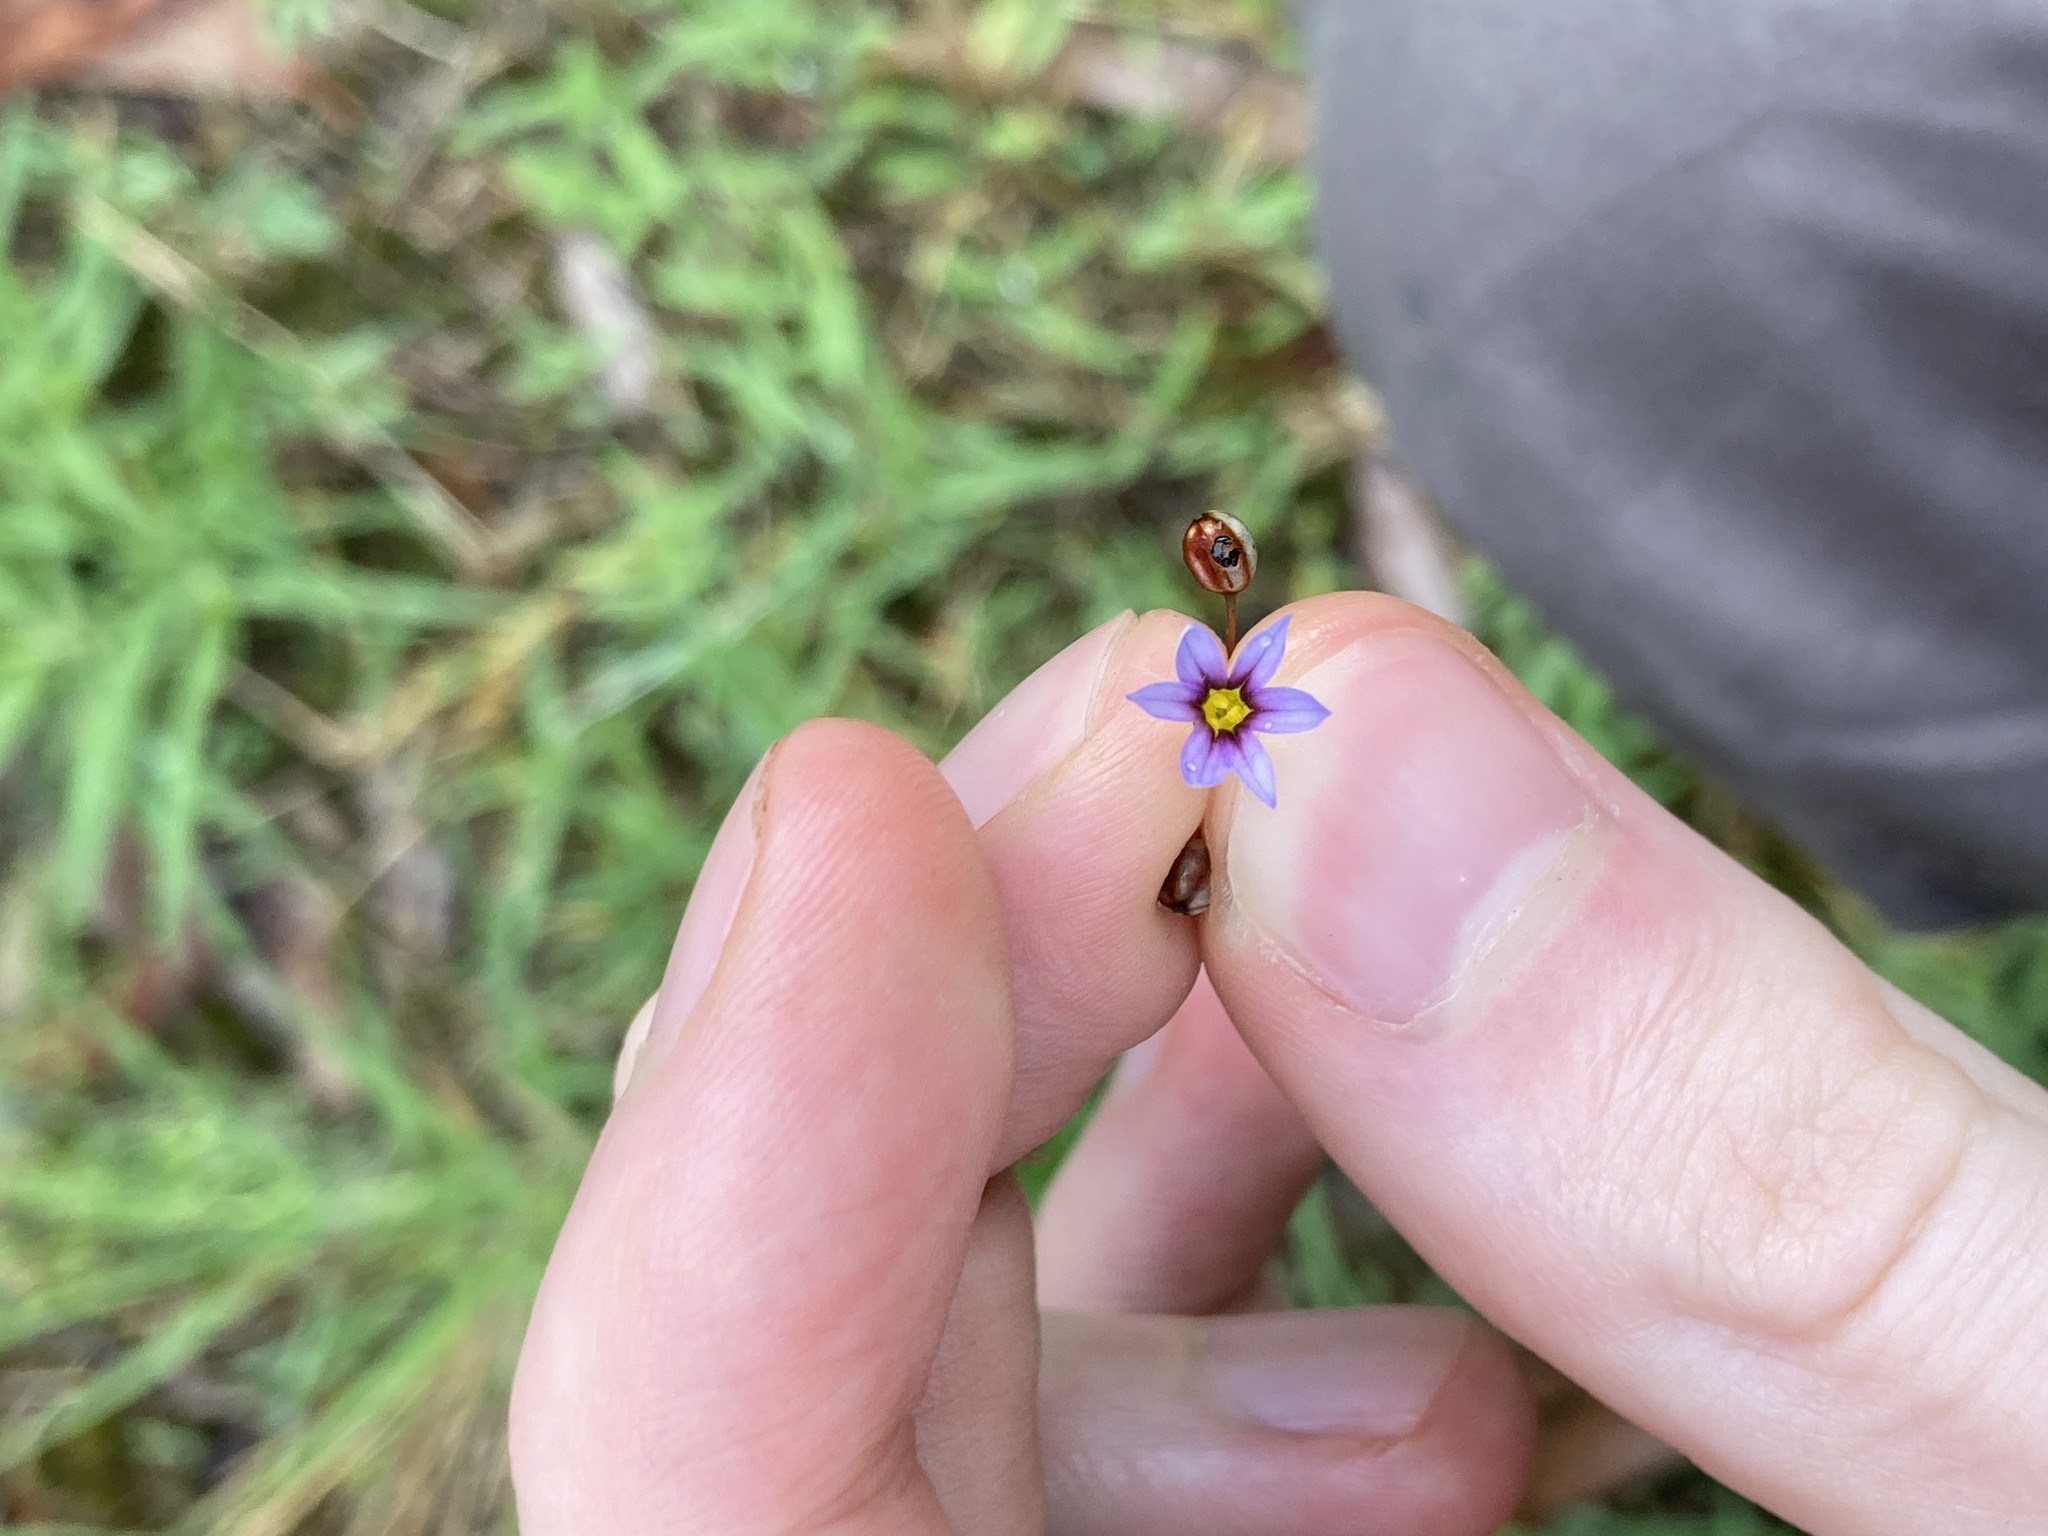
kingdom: Plantae
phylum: Tracheophyta
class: Liliopsida
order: Asparagales
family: Iridaceae
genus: Sisyrinchium
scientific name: Sisyrinchium micranthum
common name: Bermuda pigroot
